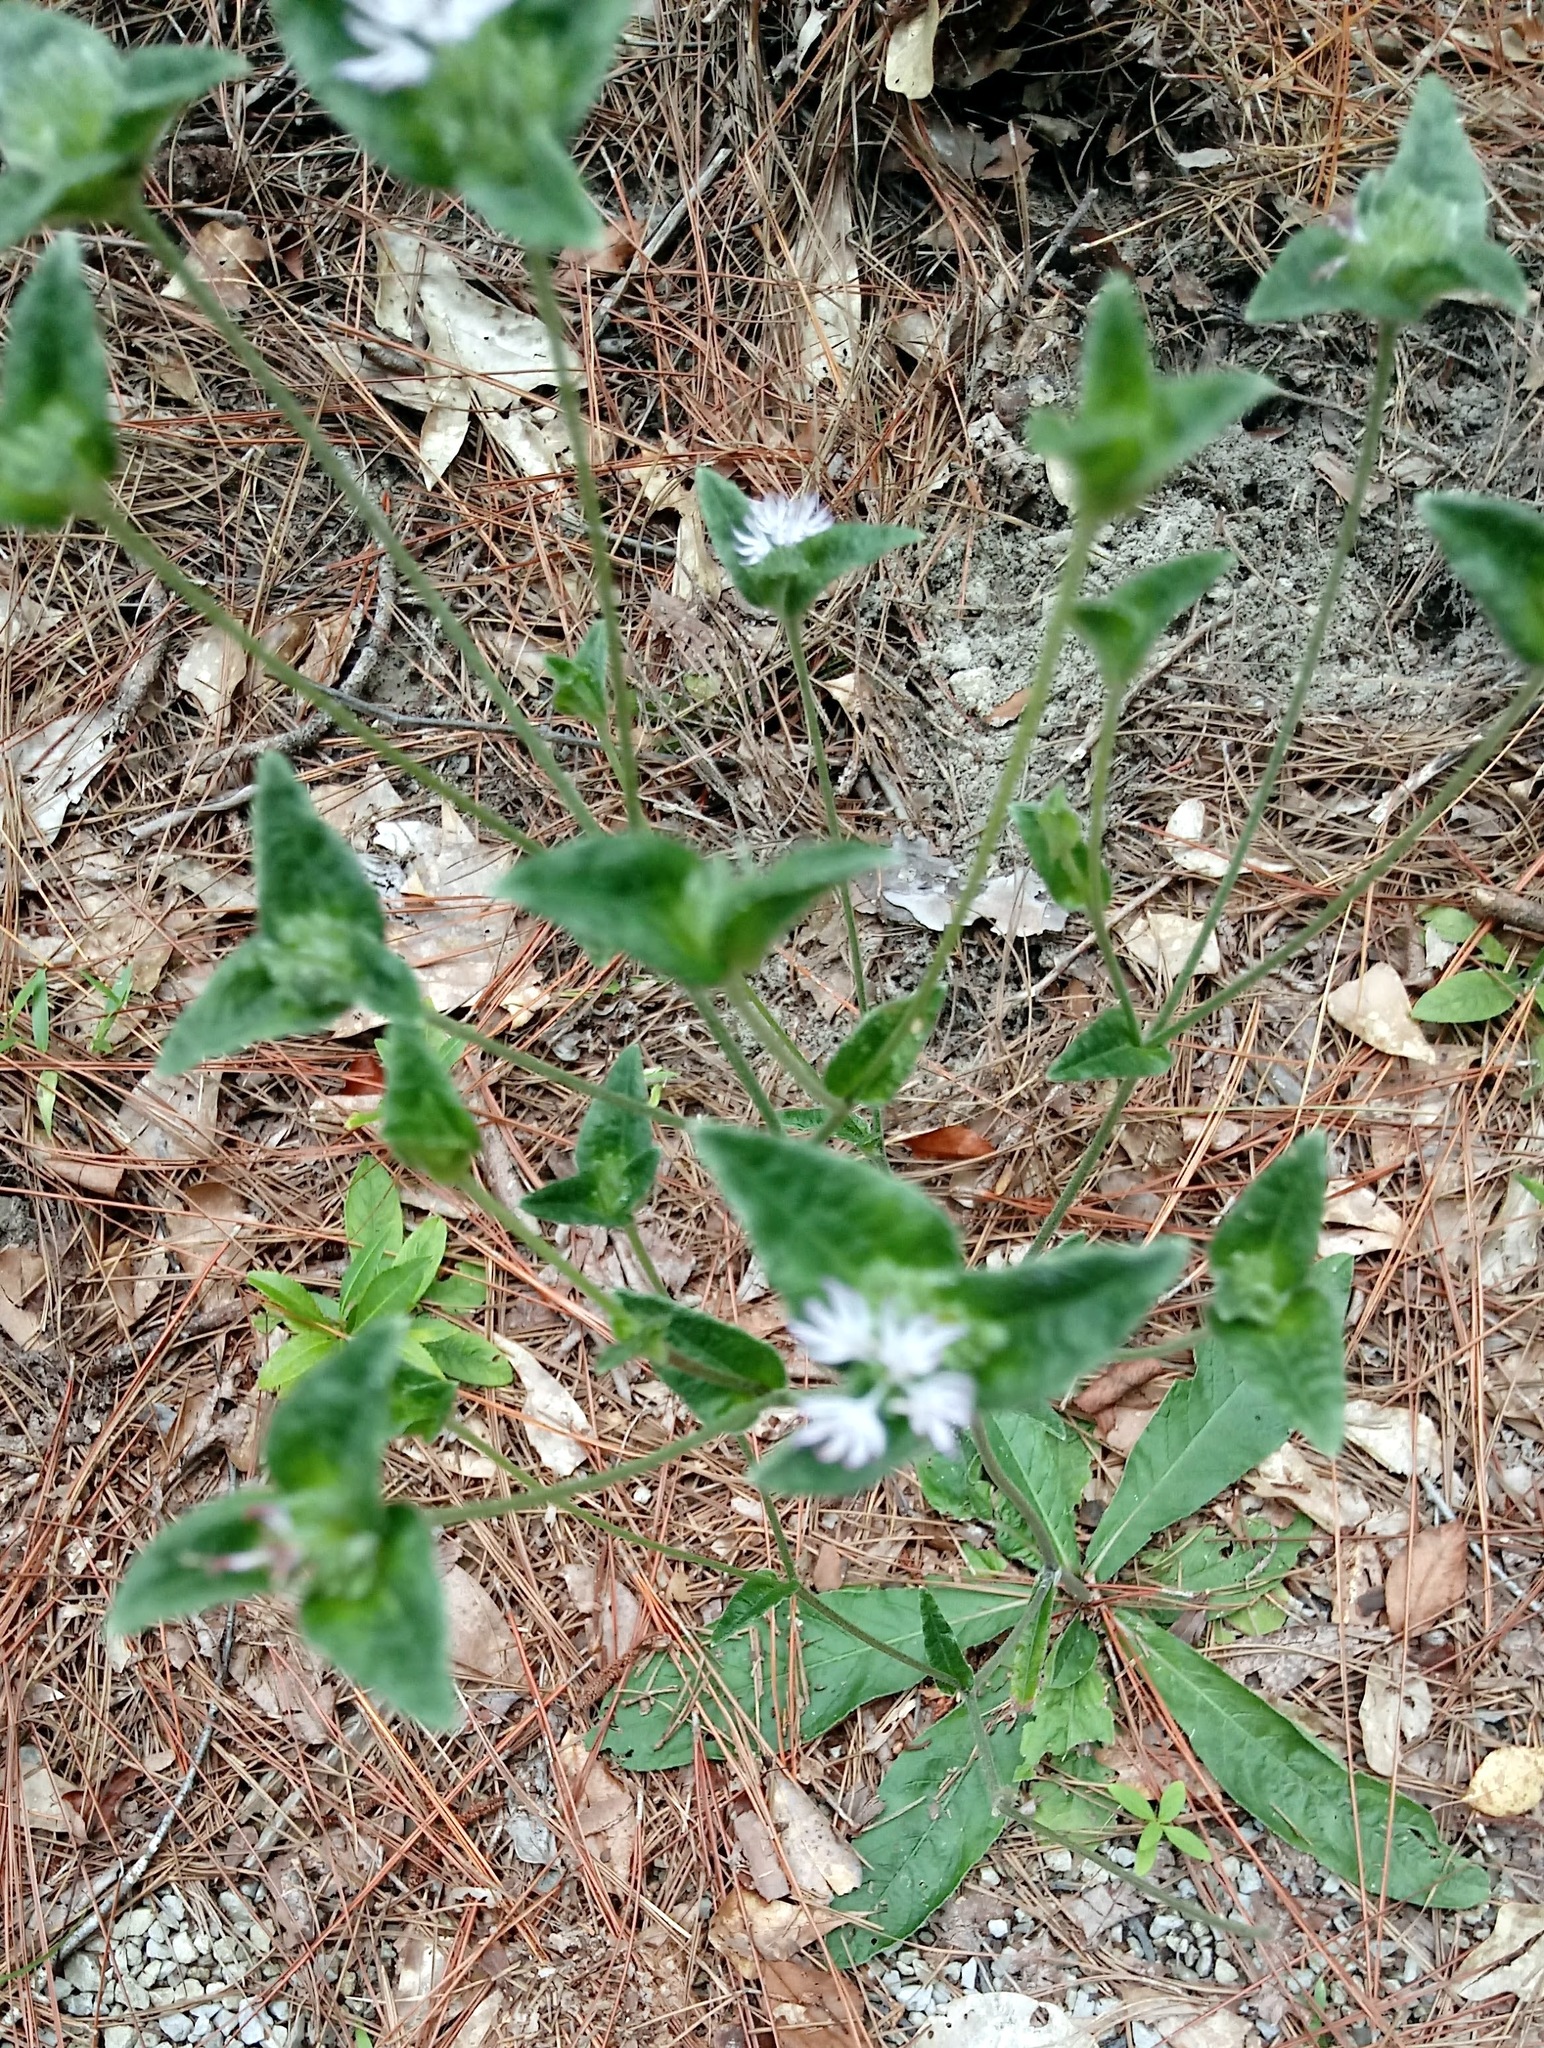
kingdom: Plantae
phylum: Tracheophyta
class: Magnoliopsida
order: Asterales
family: Asteraceae
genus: Elephantopus
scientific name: Elephantopus tomentosus
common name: Tobacco-weed
